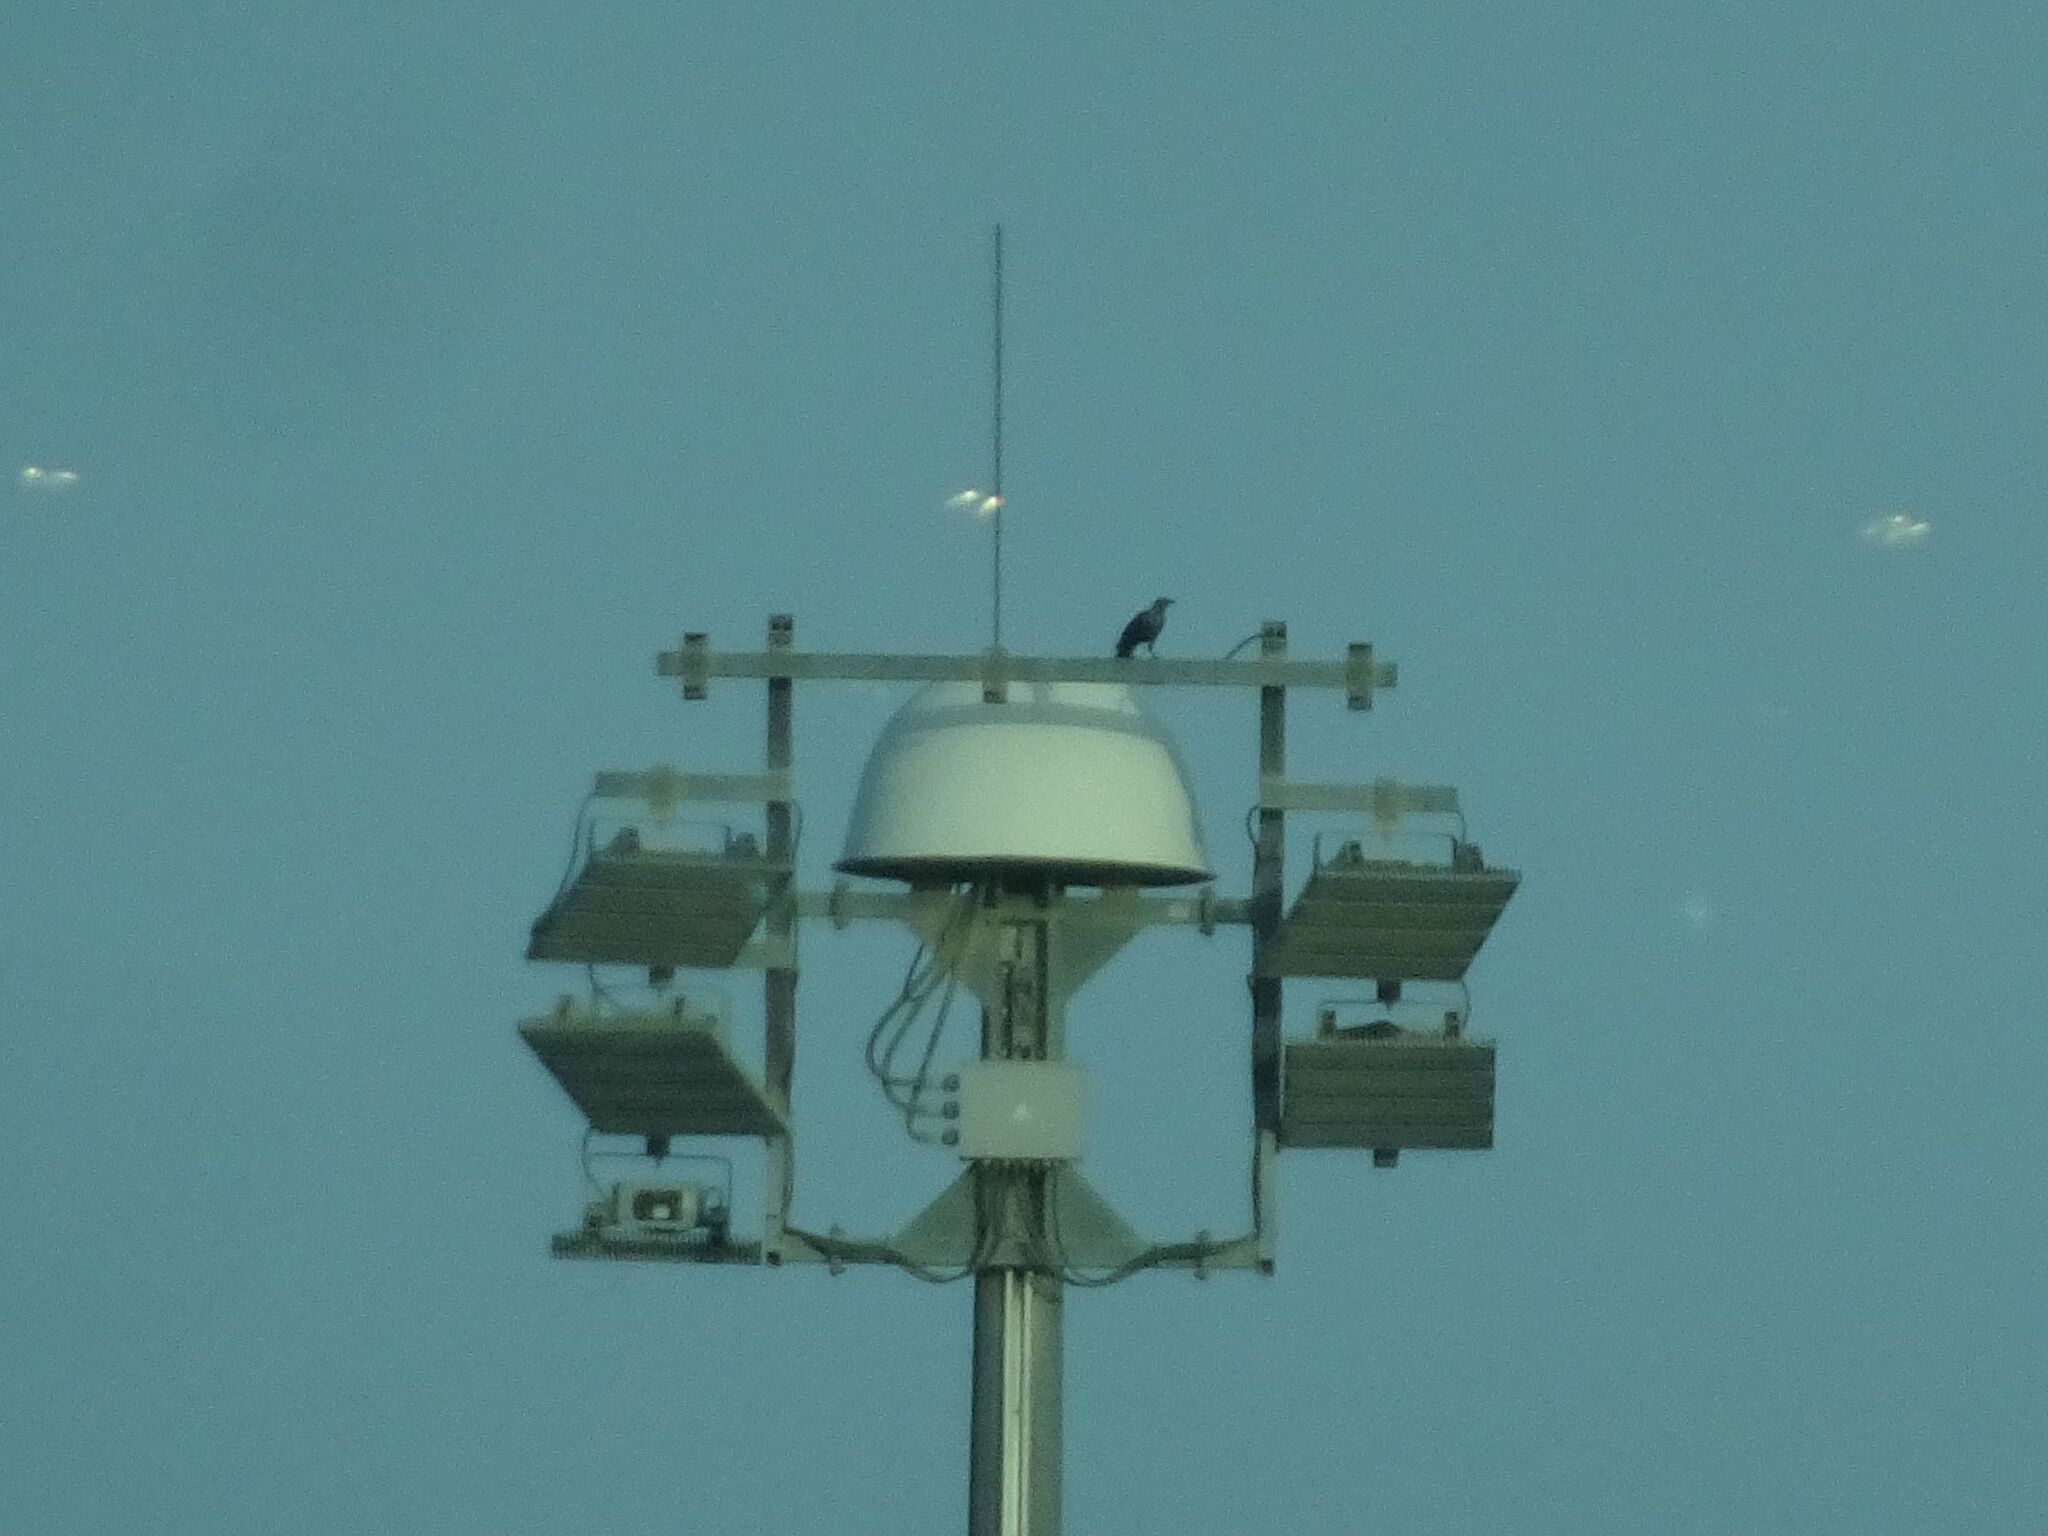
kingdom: Animalia
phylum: Chordata
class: Aves
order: Passeriformes
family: Corvidae
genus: Corvus
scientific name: Corvus splendens
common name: House crow
